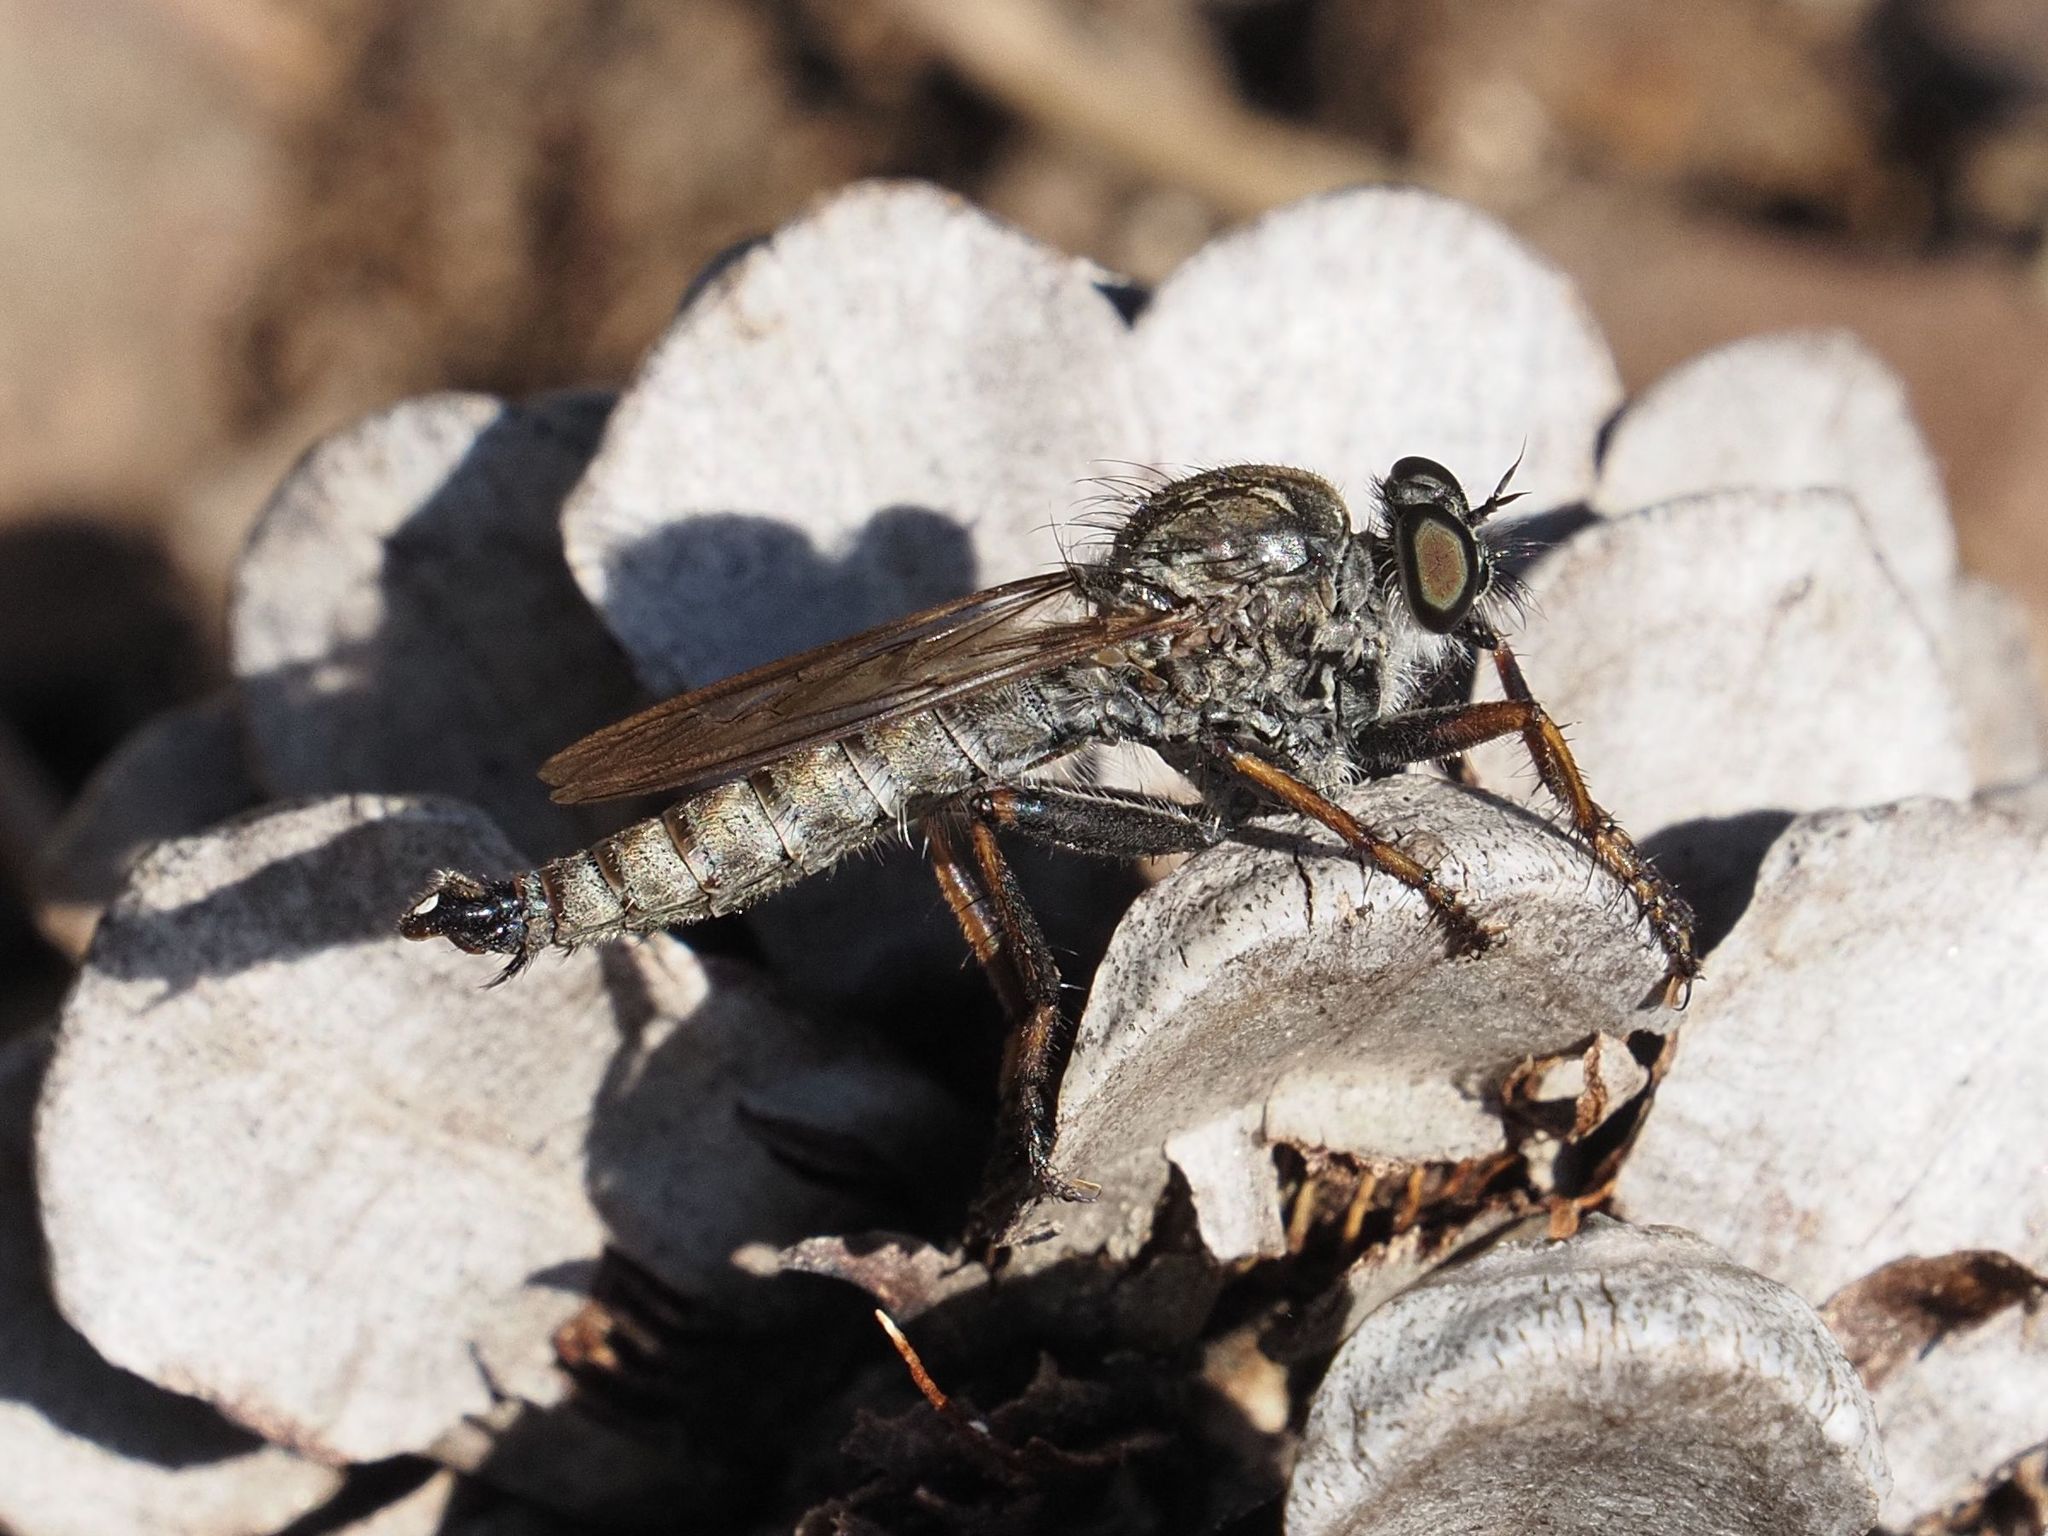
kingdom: Animalia
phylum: Arthropoda
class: Insecta
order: Diptera
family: Asilidae
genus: Machimus
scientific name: Machimus atricapillus
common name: Kite-tailed robberfly
